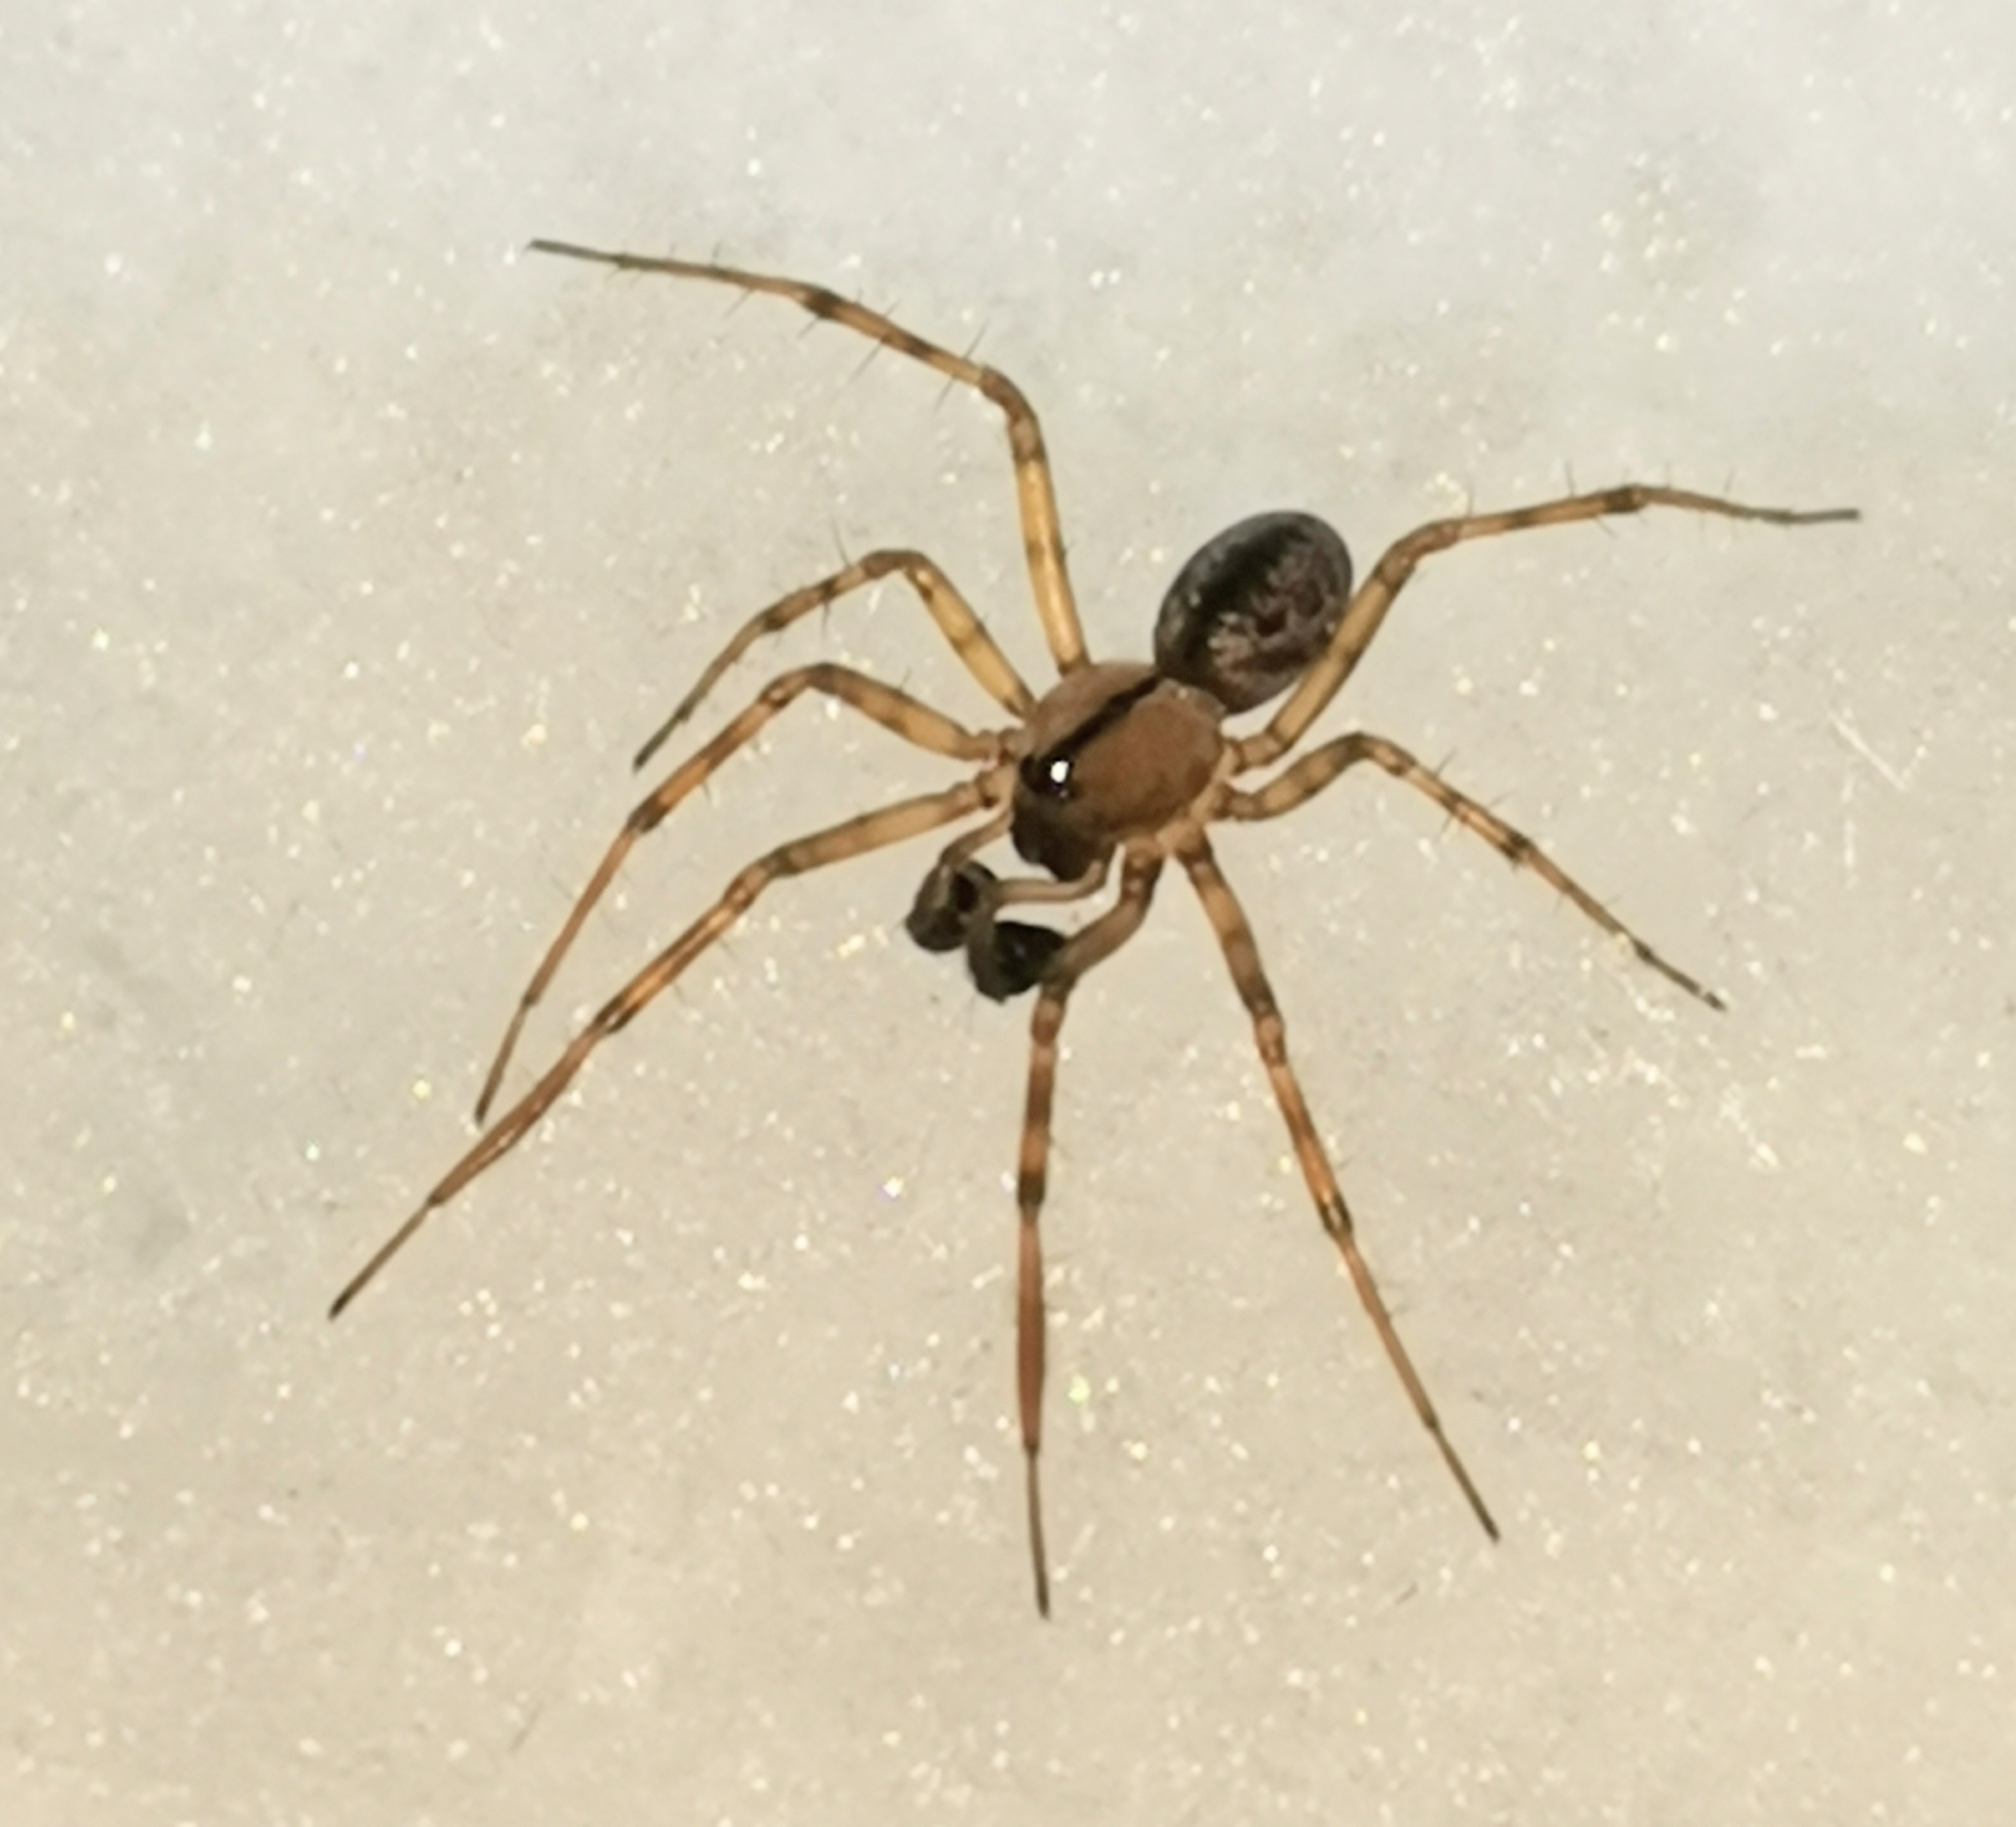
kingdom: Animalia
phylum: Arthropoda
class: Arachnida
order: Araneae
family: Linyphiidae
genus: Stemonyphantes
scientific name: Stemonyphantes lineatus
